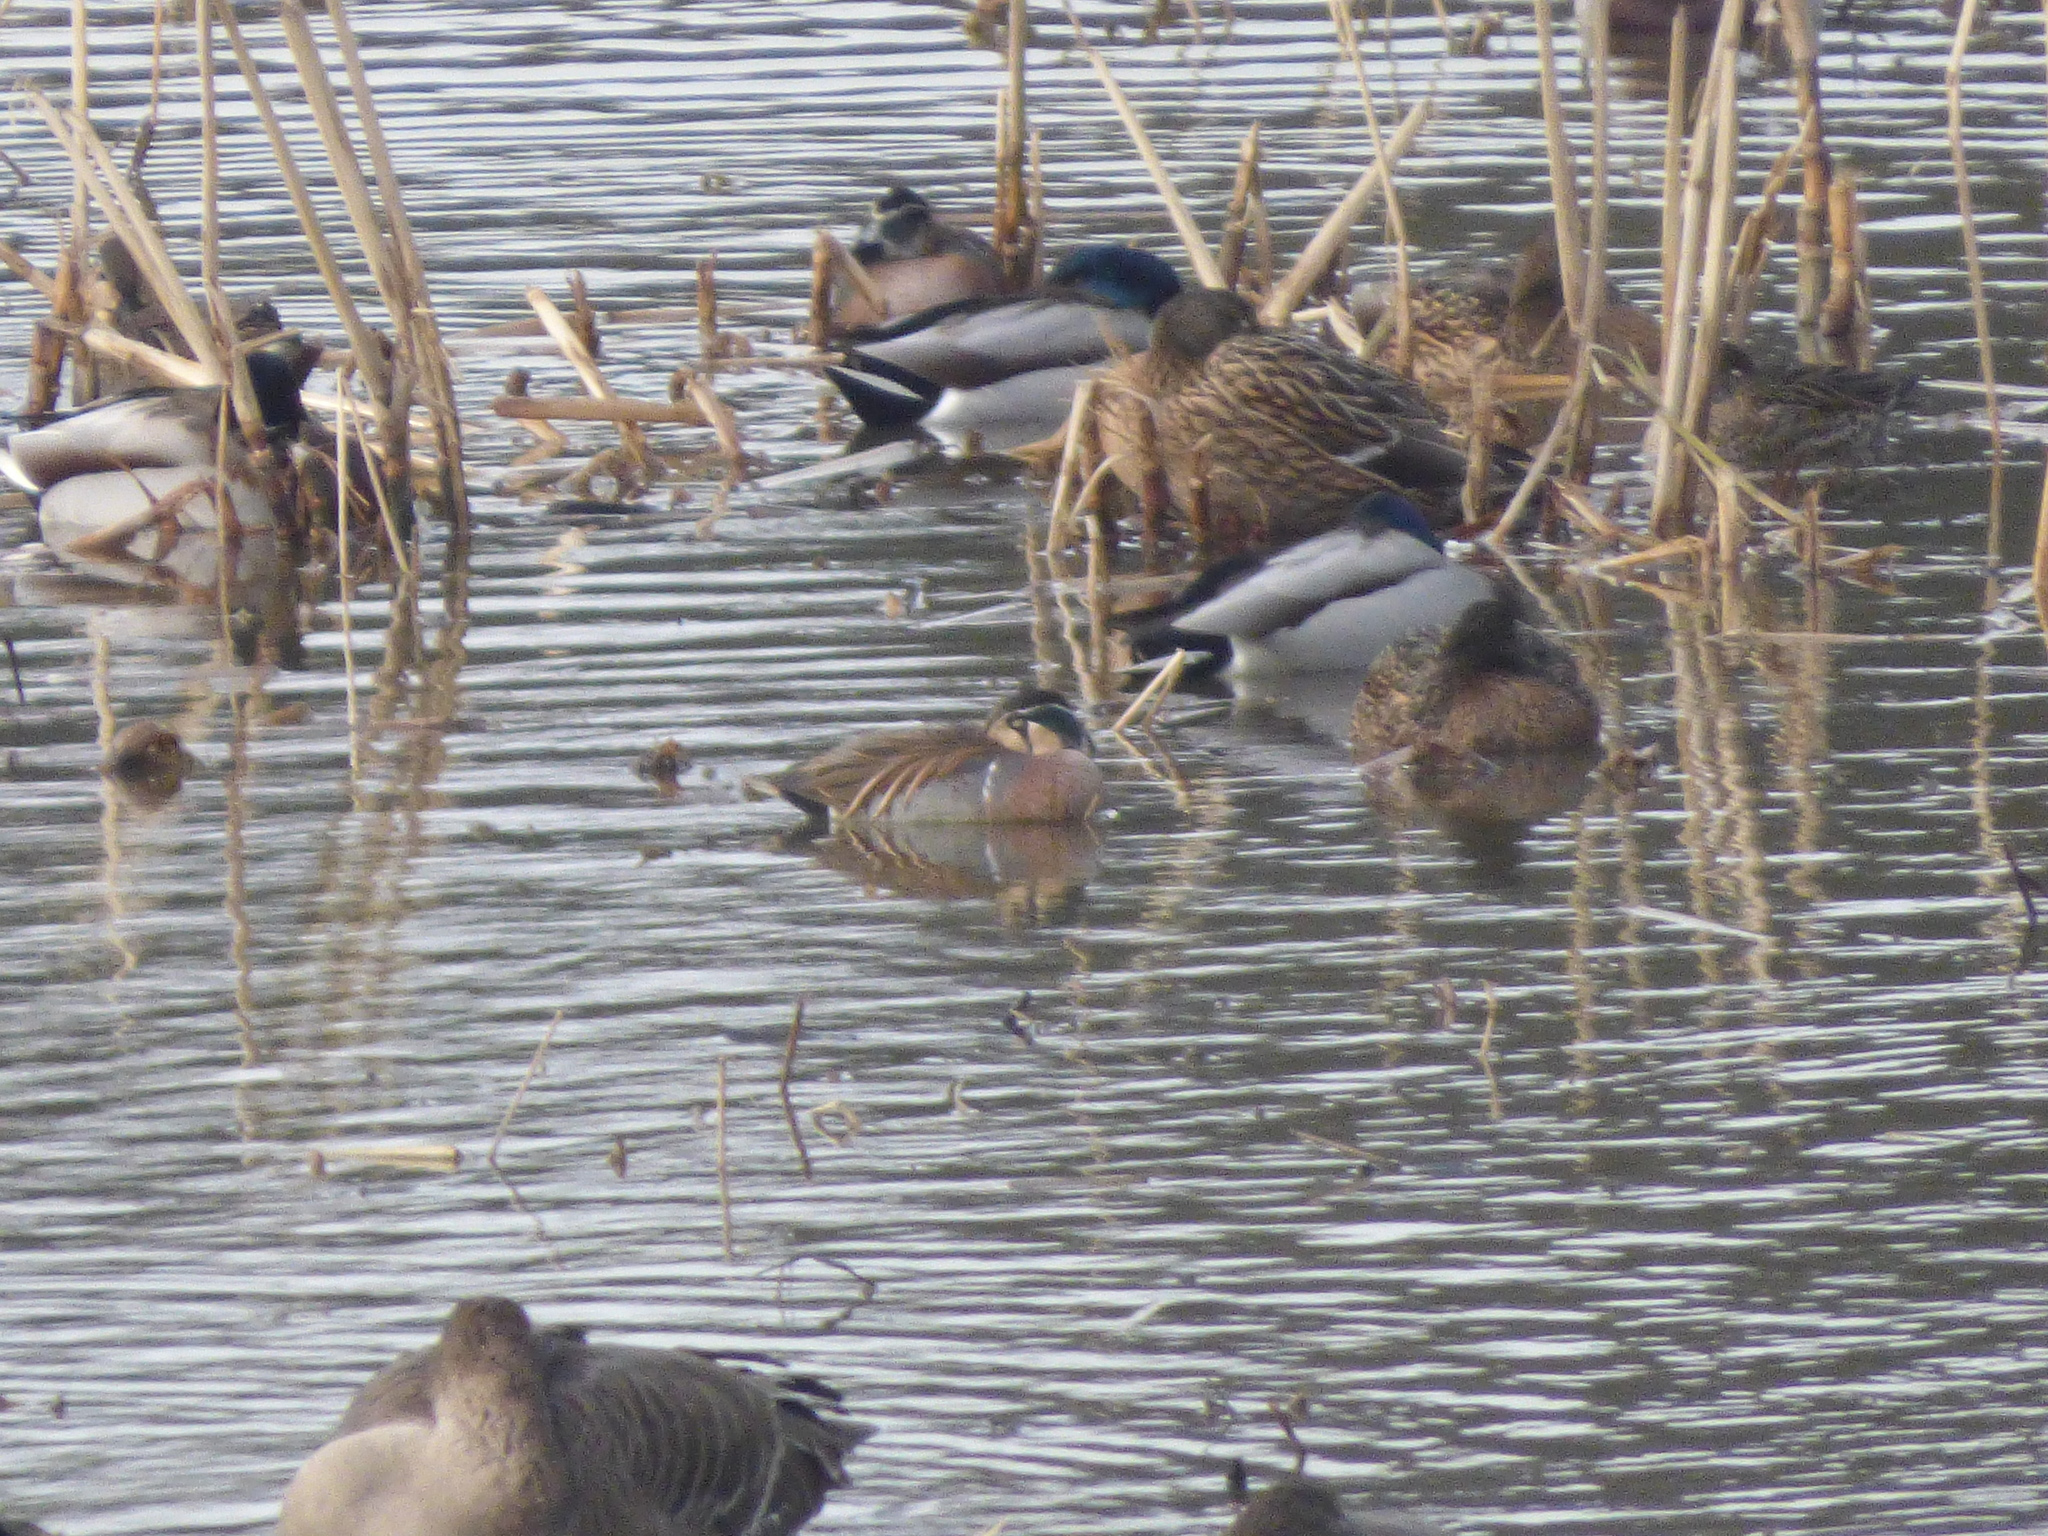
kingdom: Animalia
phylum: Chordata
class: Aves
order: Anseriformes
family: Anatidae
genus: Sibirionetta
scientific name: Sibirionetta formosa
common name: Baikal teal
